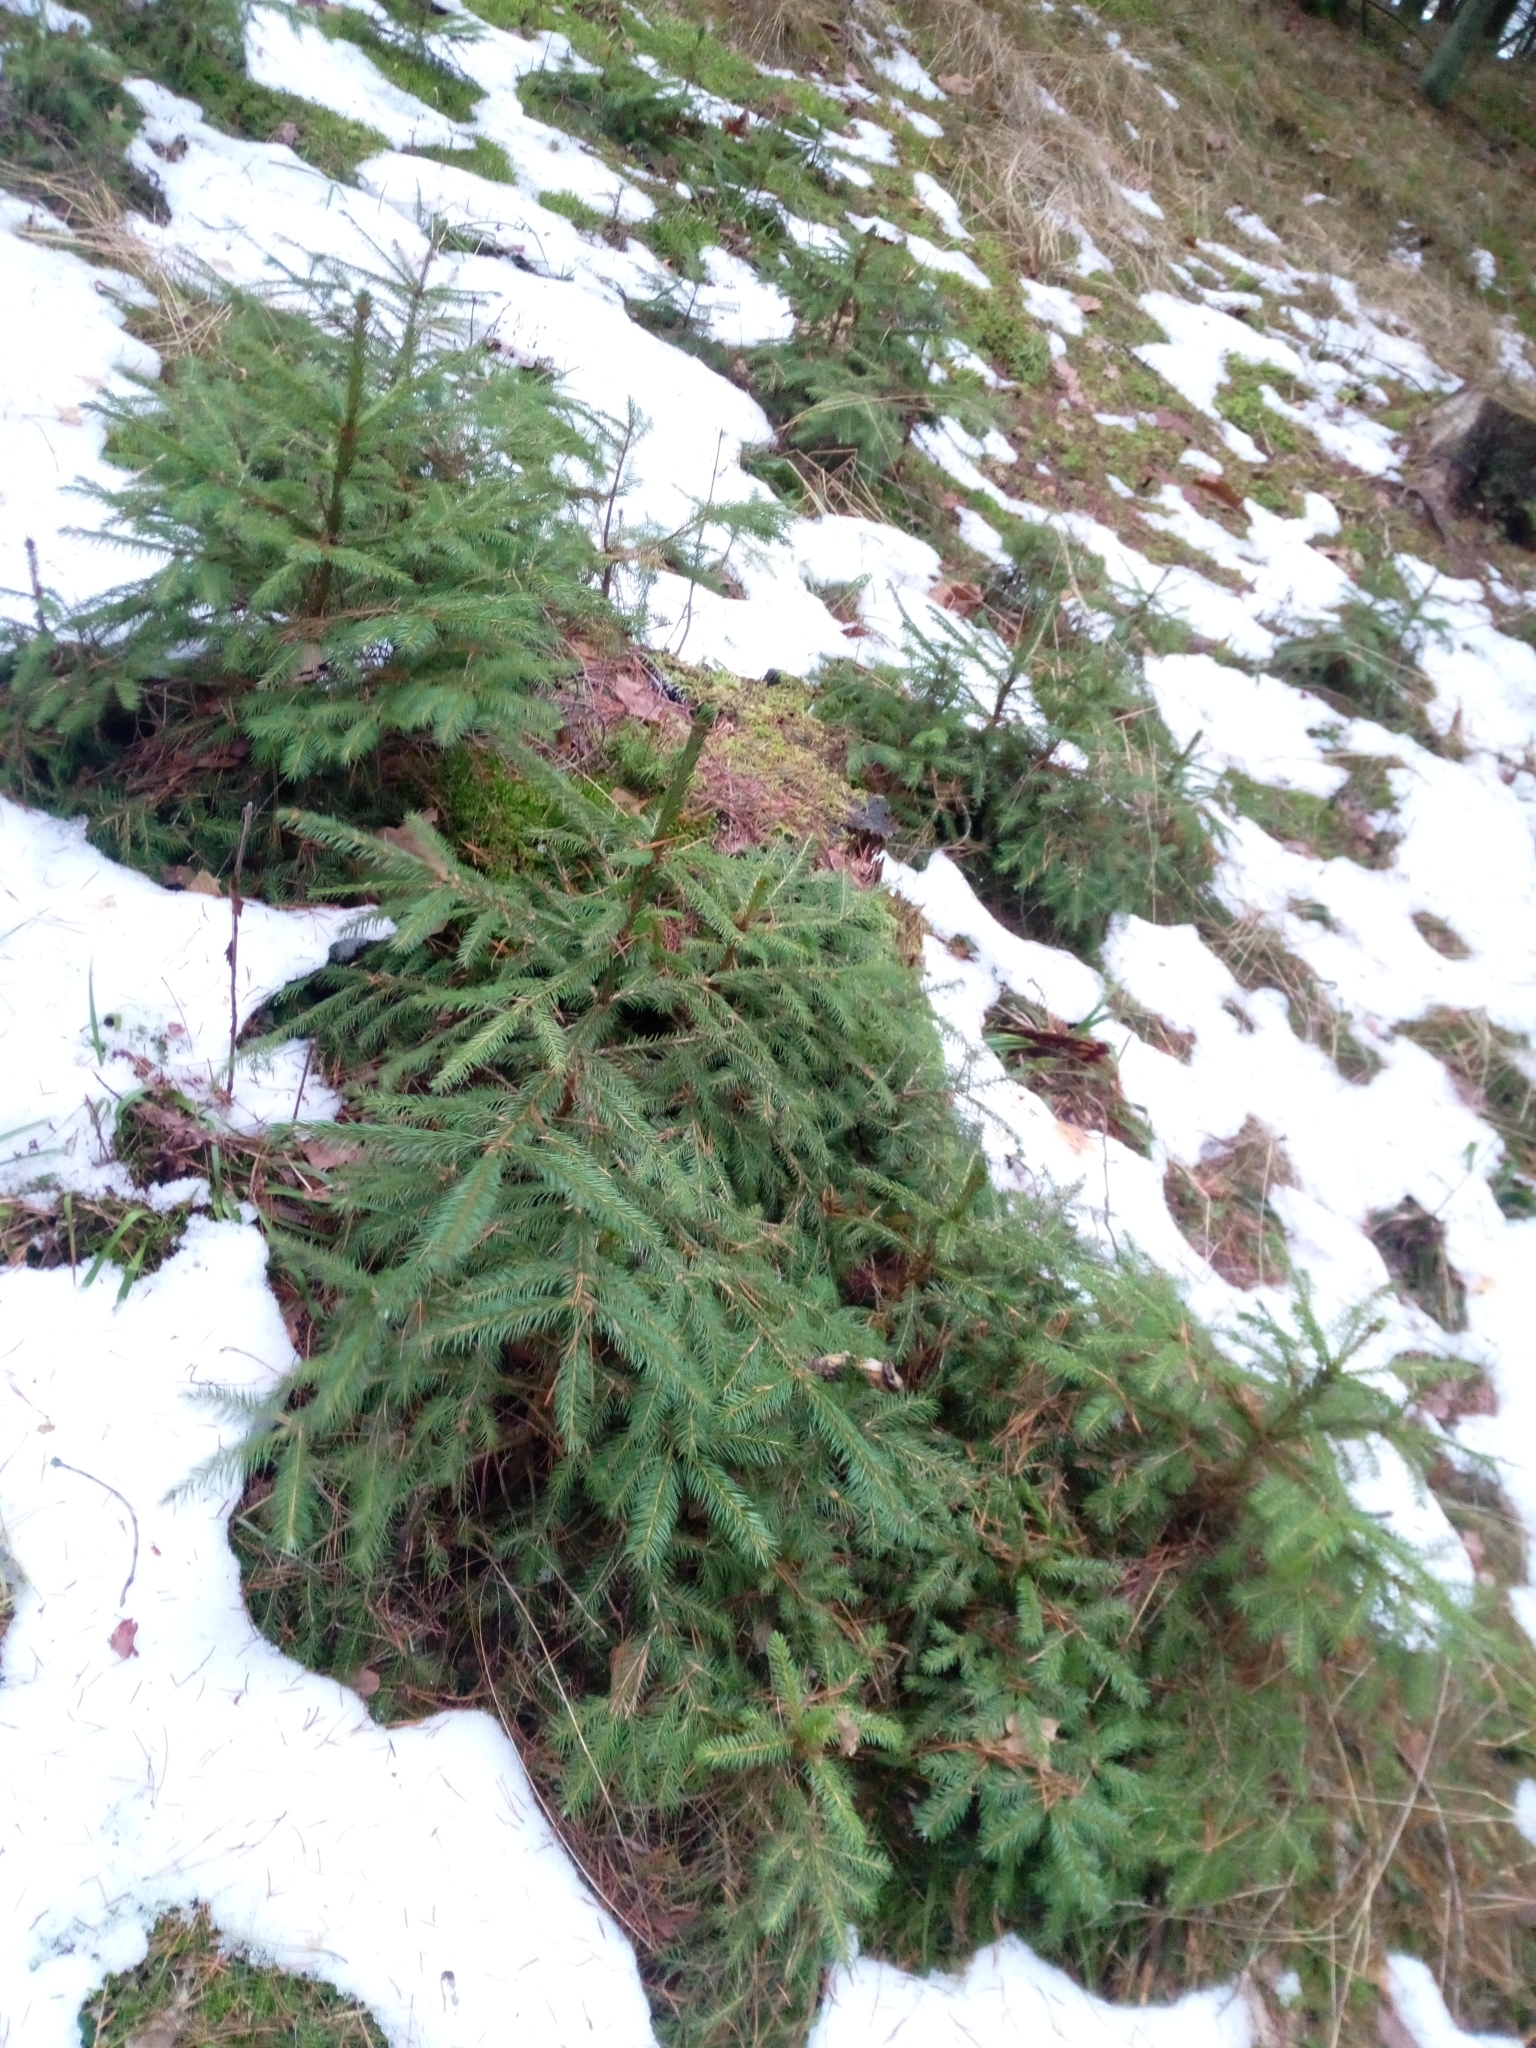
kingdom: Plantae
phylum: Tracheophyta
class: Pinopsida
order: Pinales
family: Pinaceae
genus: Picea
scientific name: Picea abies
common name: Norway spruce
